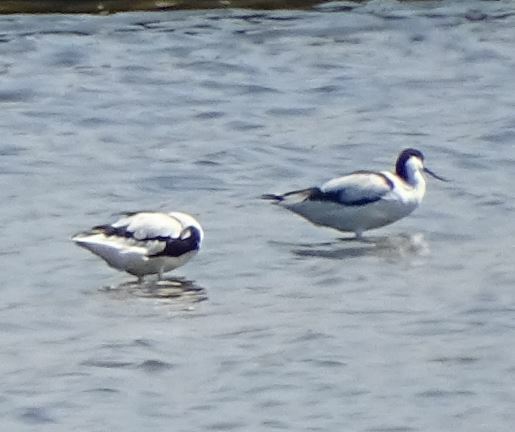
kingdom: Animalia
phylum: Chordata
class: Aves
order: Charadriiformes
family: Recurvirostridae
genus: Recurvirostra
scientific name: Recurvirostra avosetta
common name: Pied avocet
